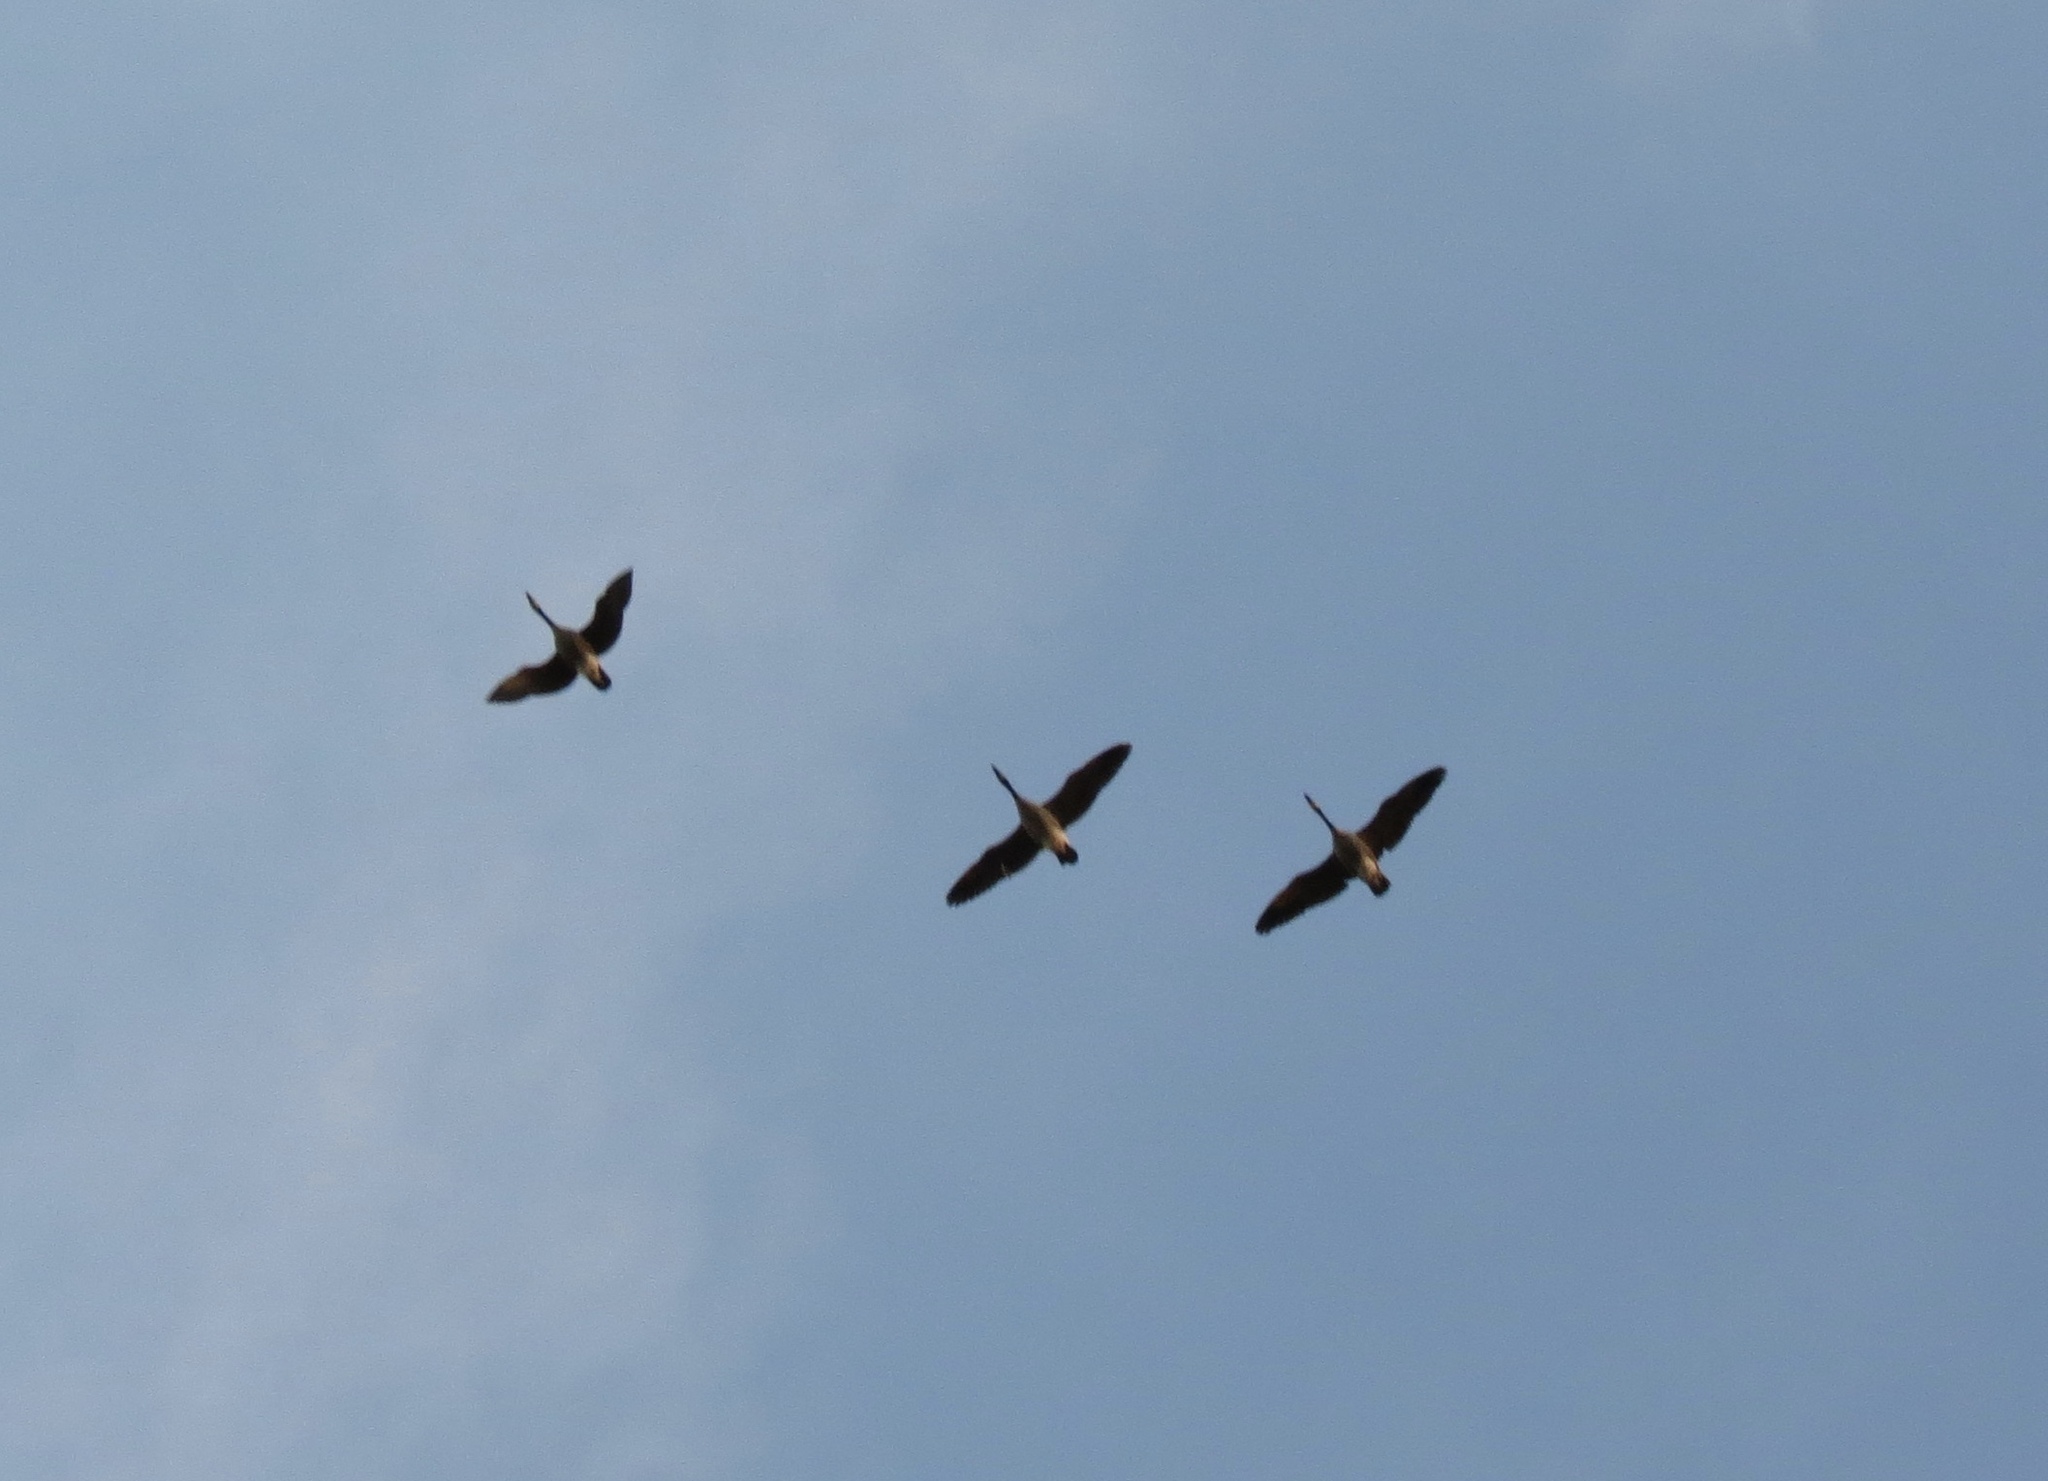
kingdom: Animalia
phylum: Chordata
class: Aves
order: Anseriformes
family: Anatidae
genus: Branta
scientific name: Branta canadensis
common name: Canada goose
